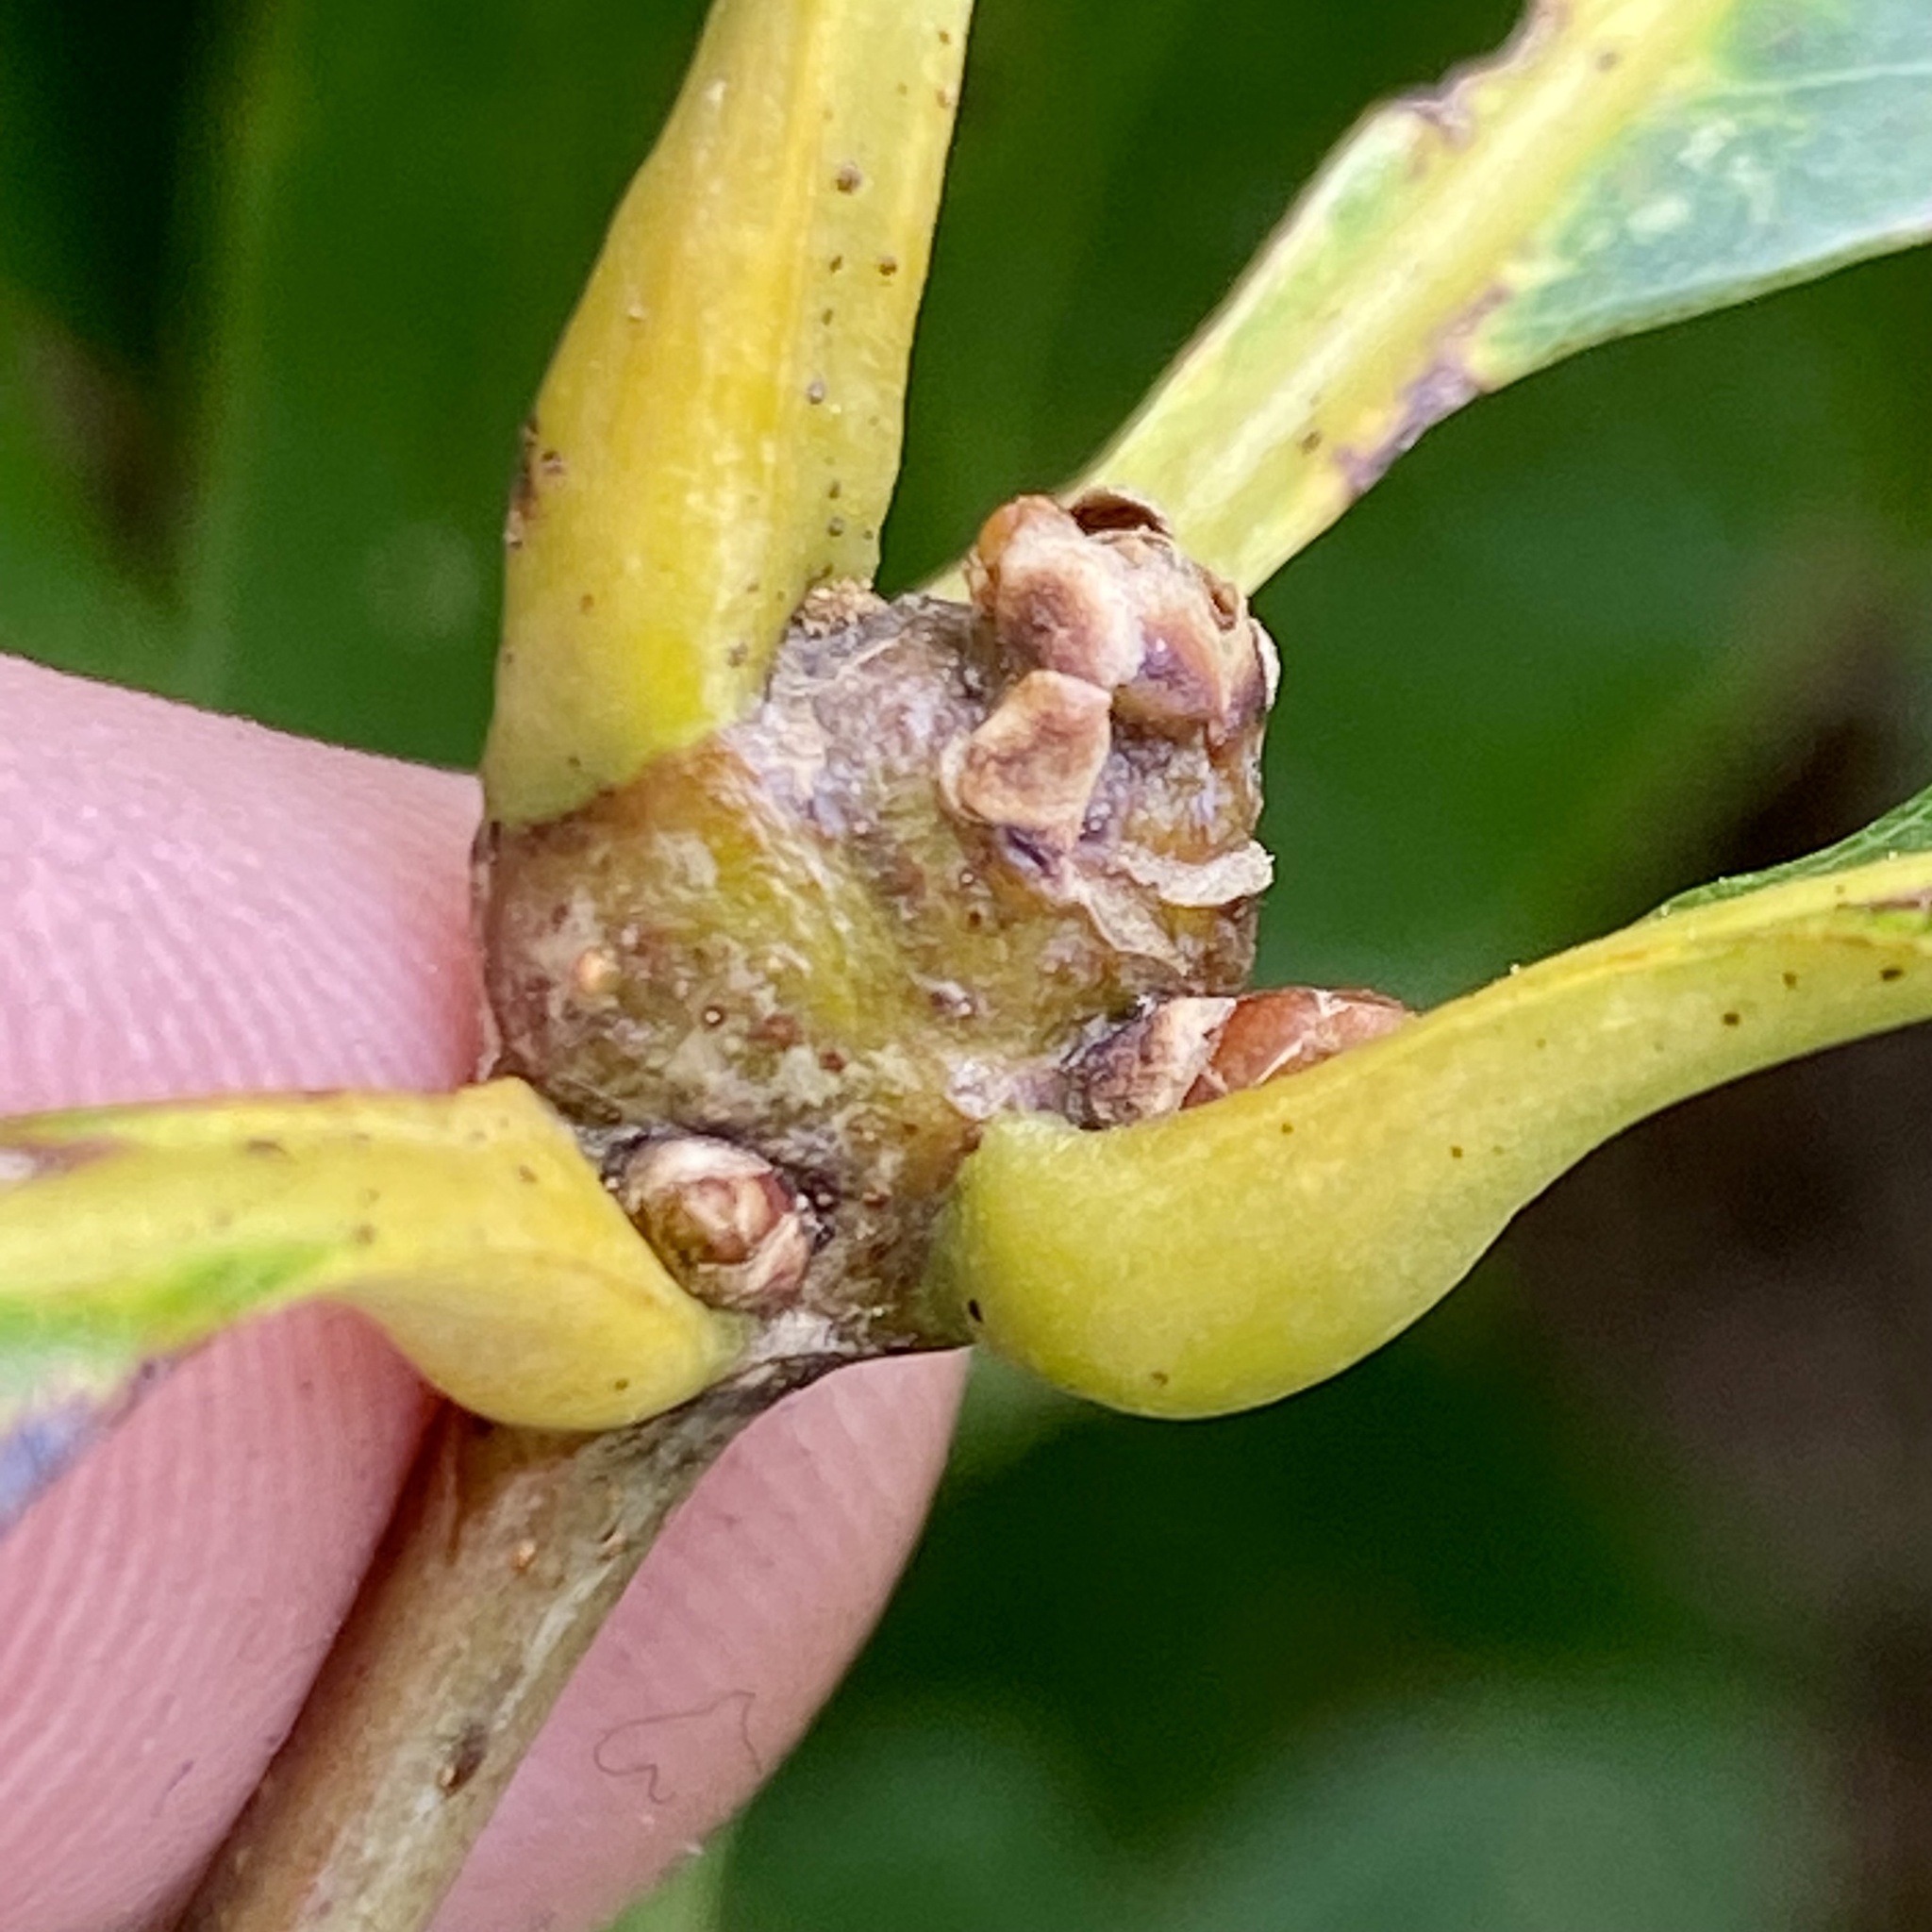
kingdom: Animalia
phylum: Arthropoda
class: Insecta
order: Hymenoptera
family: Cynipidae
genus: Callirhytis
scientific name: Callirhytis clavula
